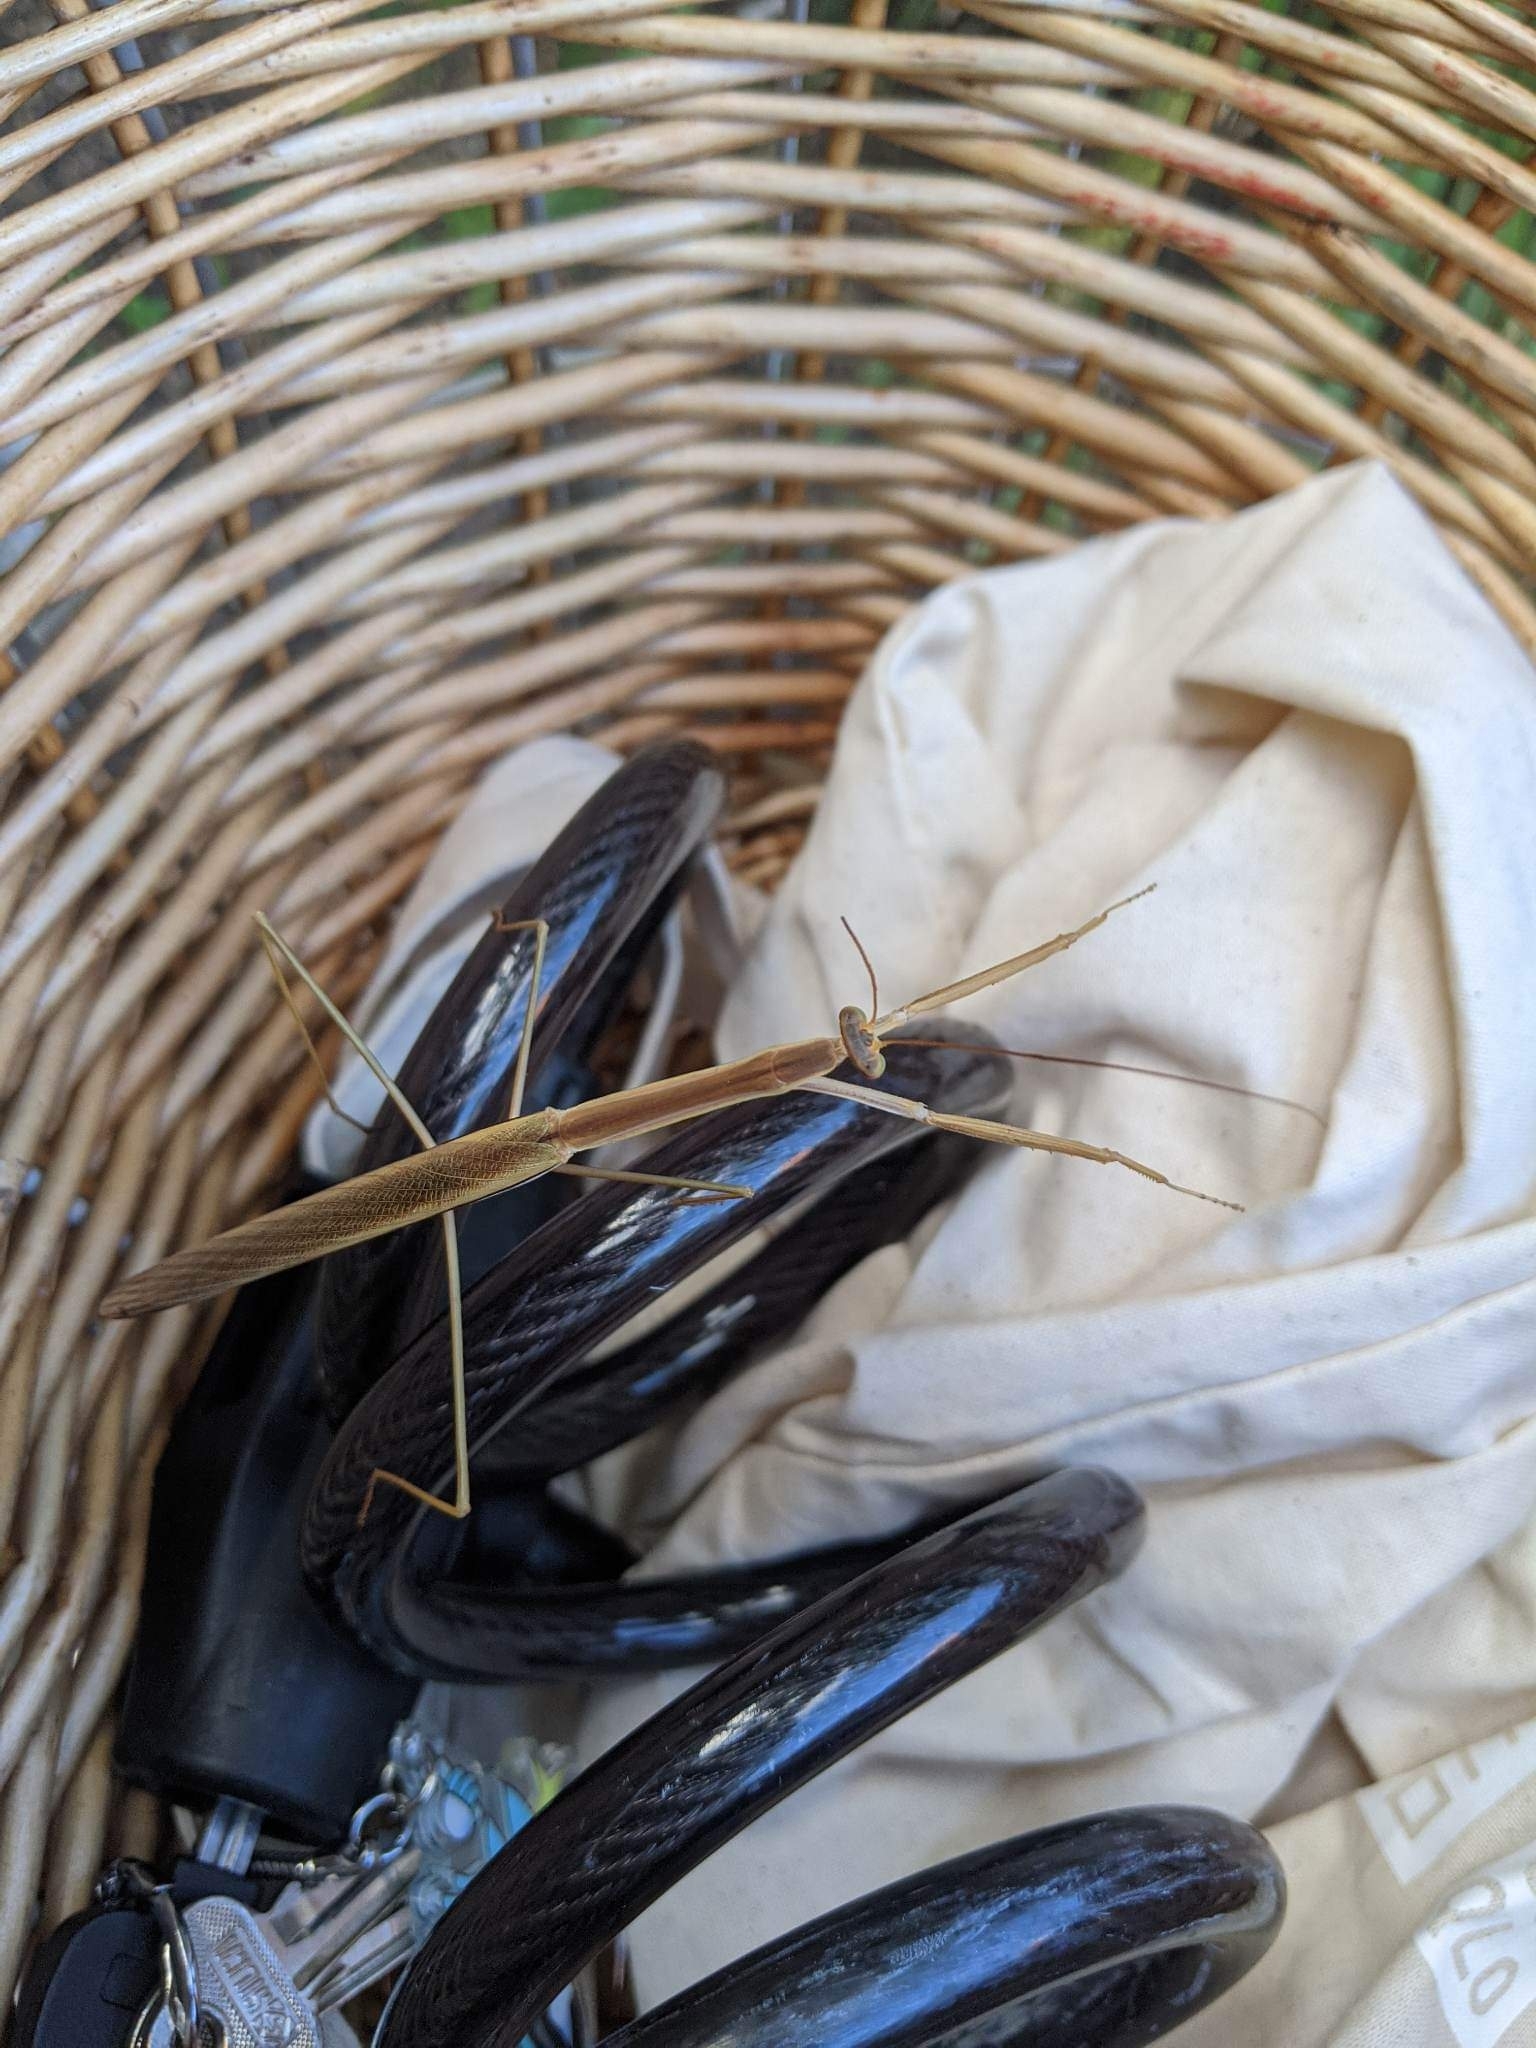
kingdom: Animalia
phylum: Arthropoda
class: Insecta
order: Mantodea
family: Mantidae
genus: Tenodera
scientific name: Tenodera
